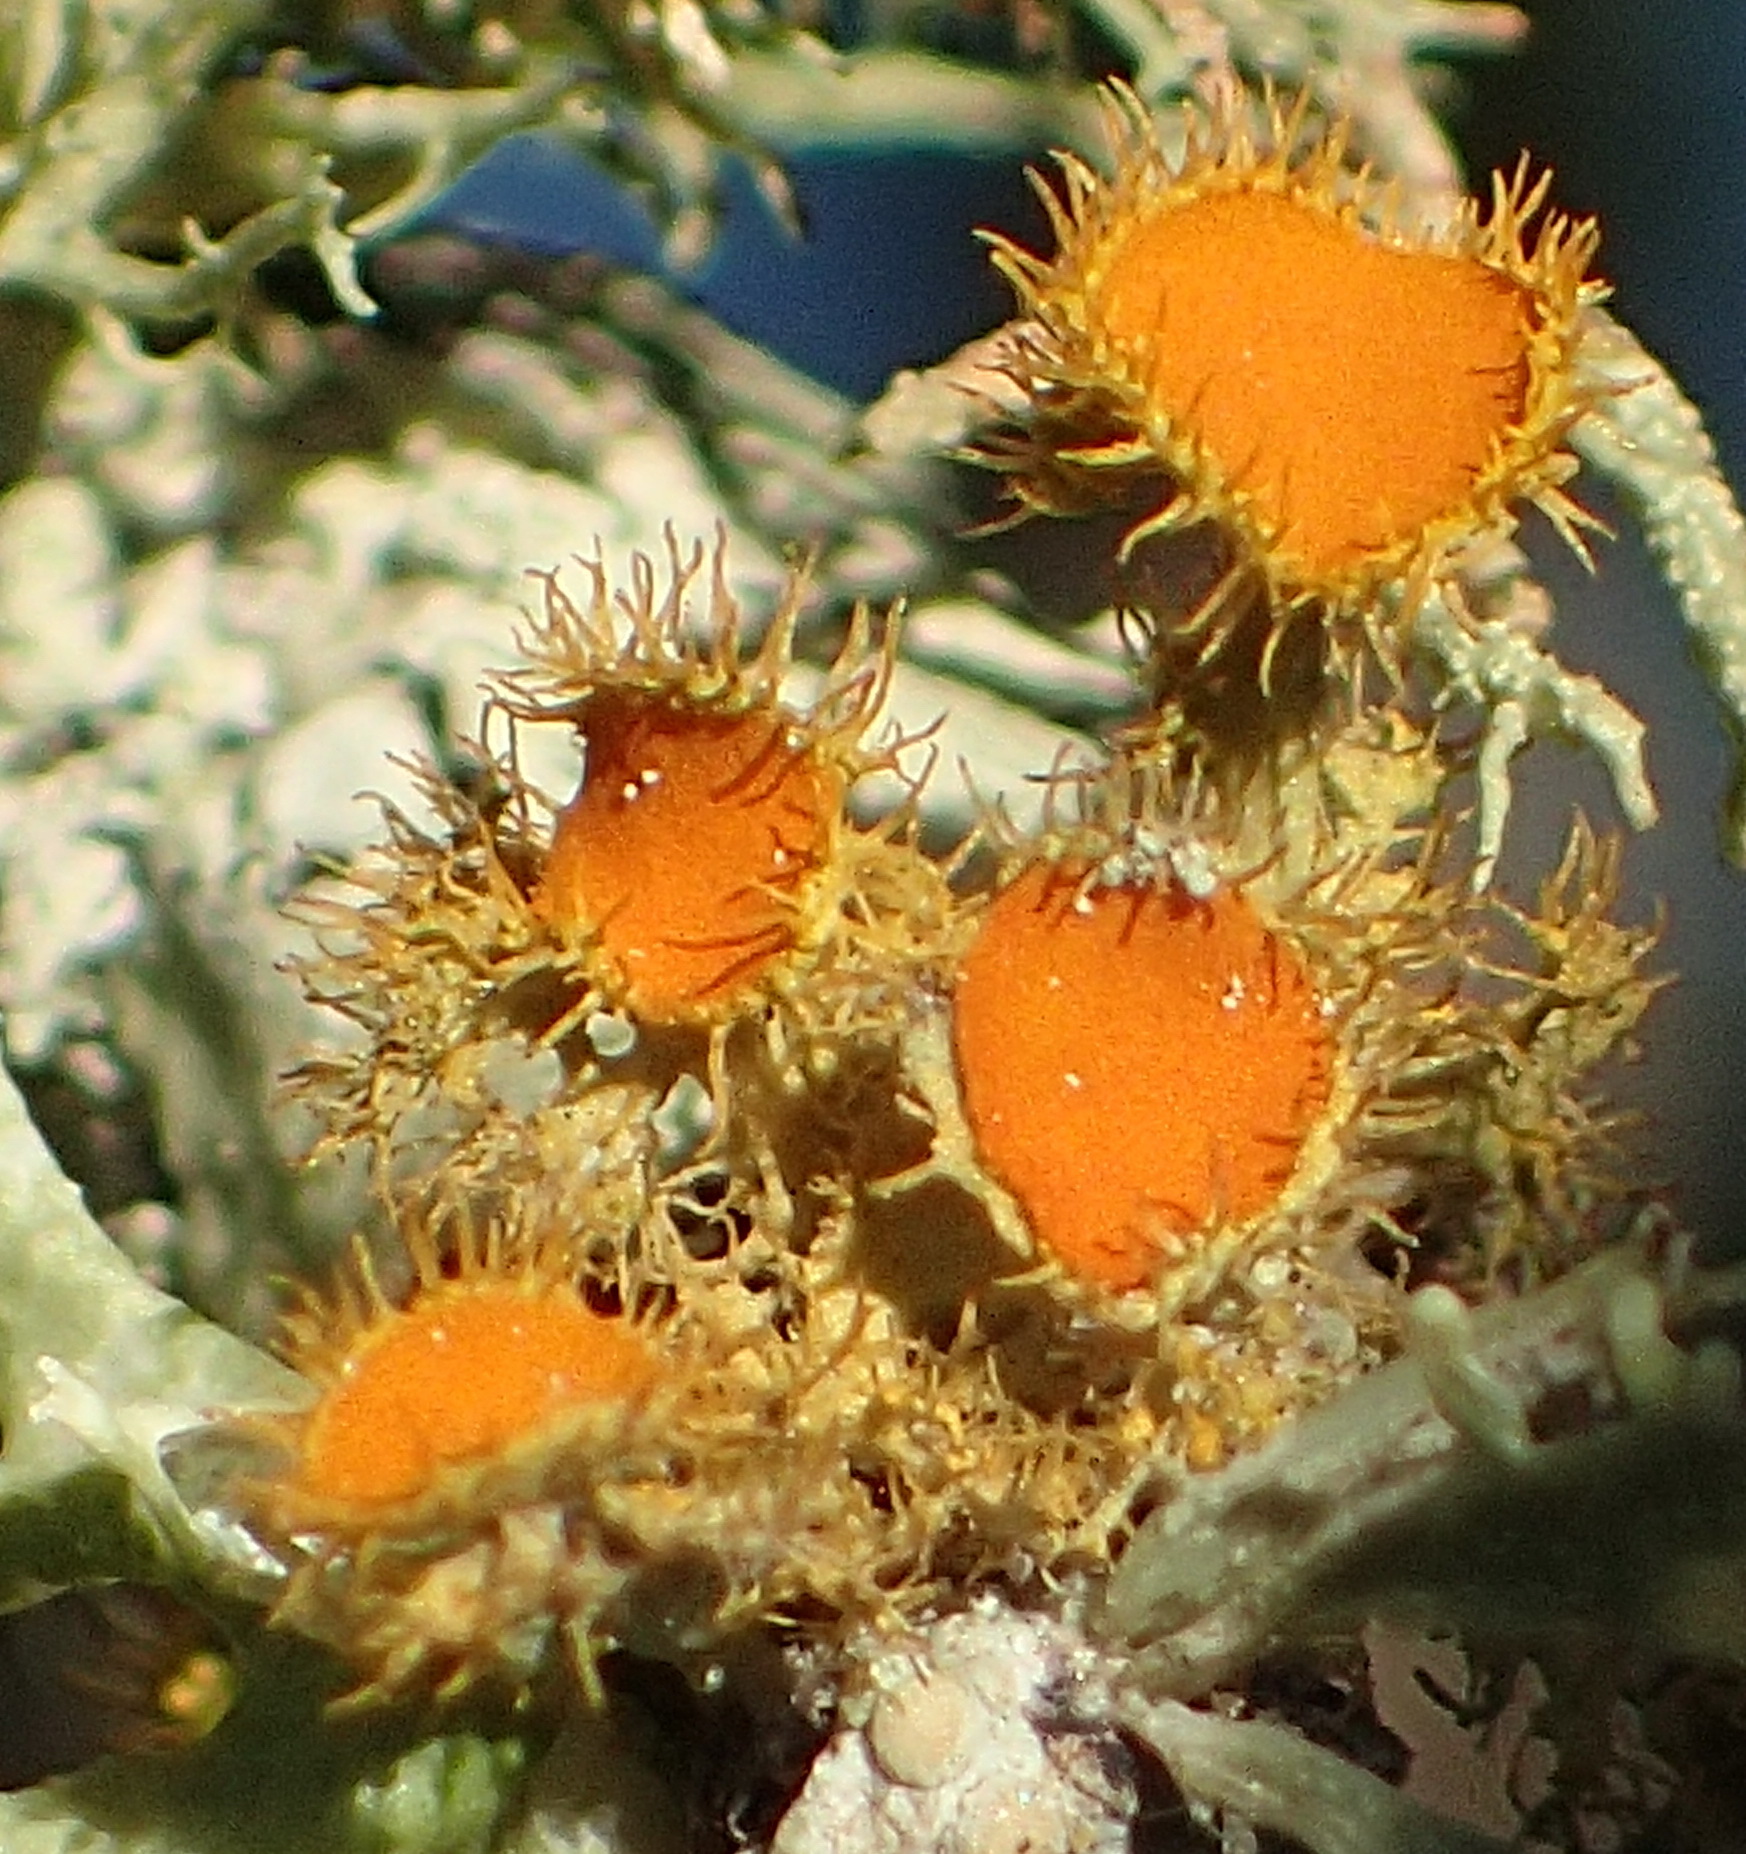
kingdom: Fungi
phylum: Ascomycota
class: Lecanoromycetes
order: Teloschistales
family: Teloschistaceae
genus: Niorma
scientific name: Niorma chrysophthalma
